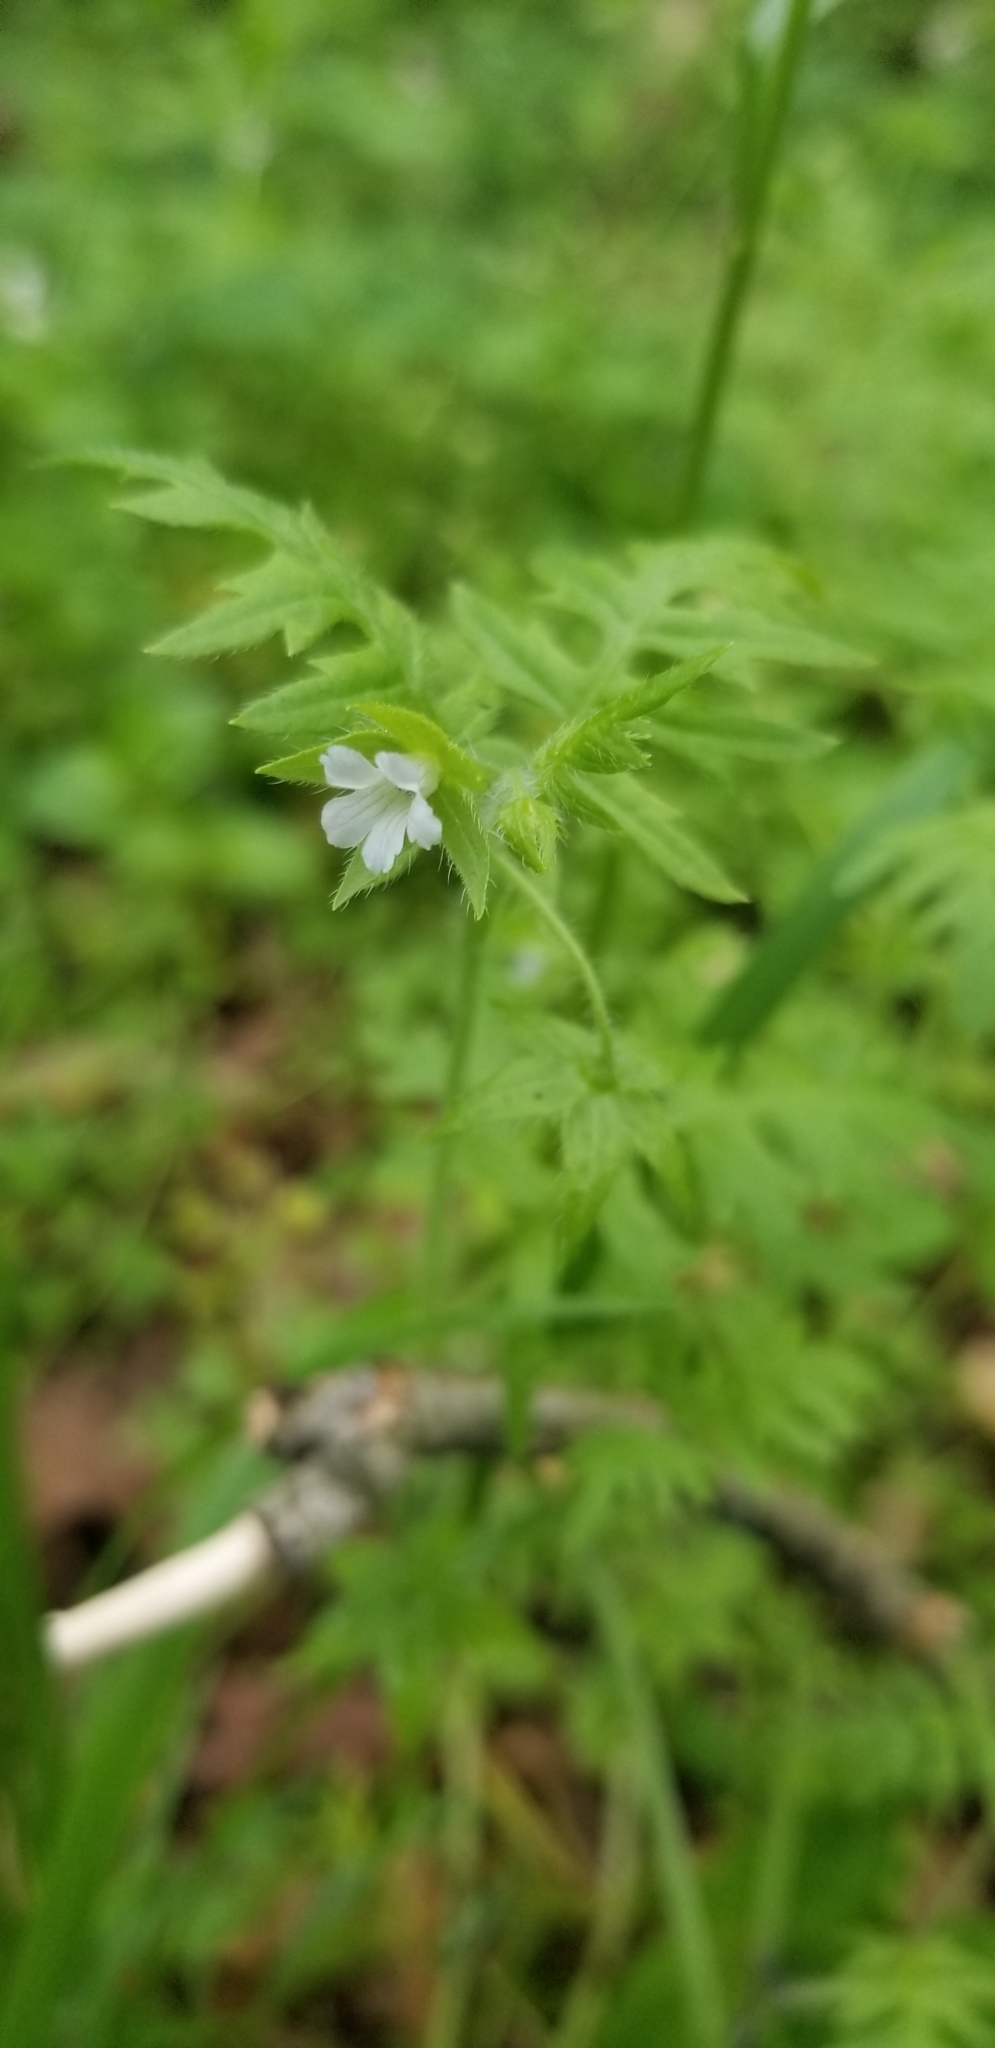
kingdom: Plantae
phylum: Tracheophyta
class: Magnoliopsida
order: Boraginales
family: Hydrophyllaceae
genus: Ellisia
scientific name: Ellisia nyctelea
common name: Aunt lucy
